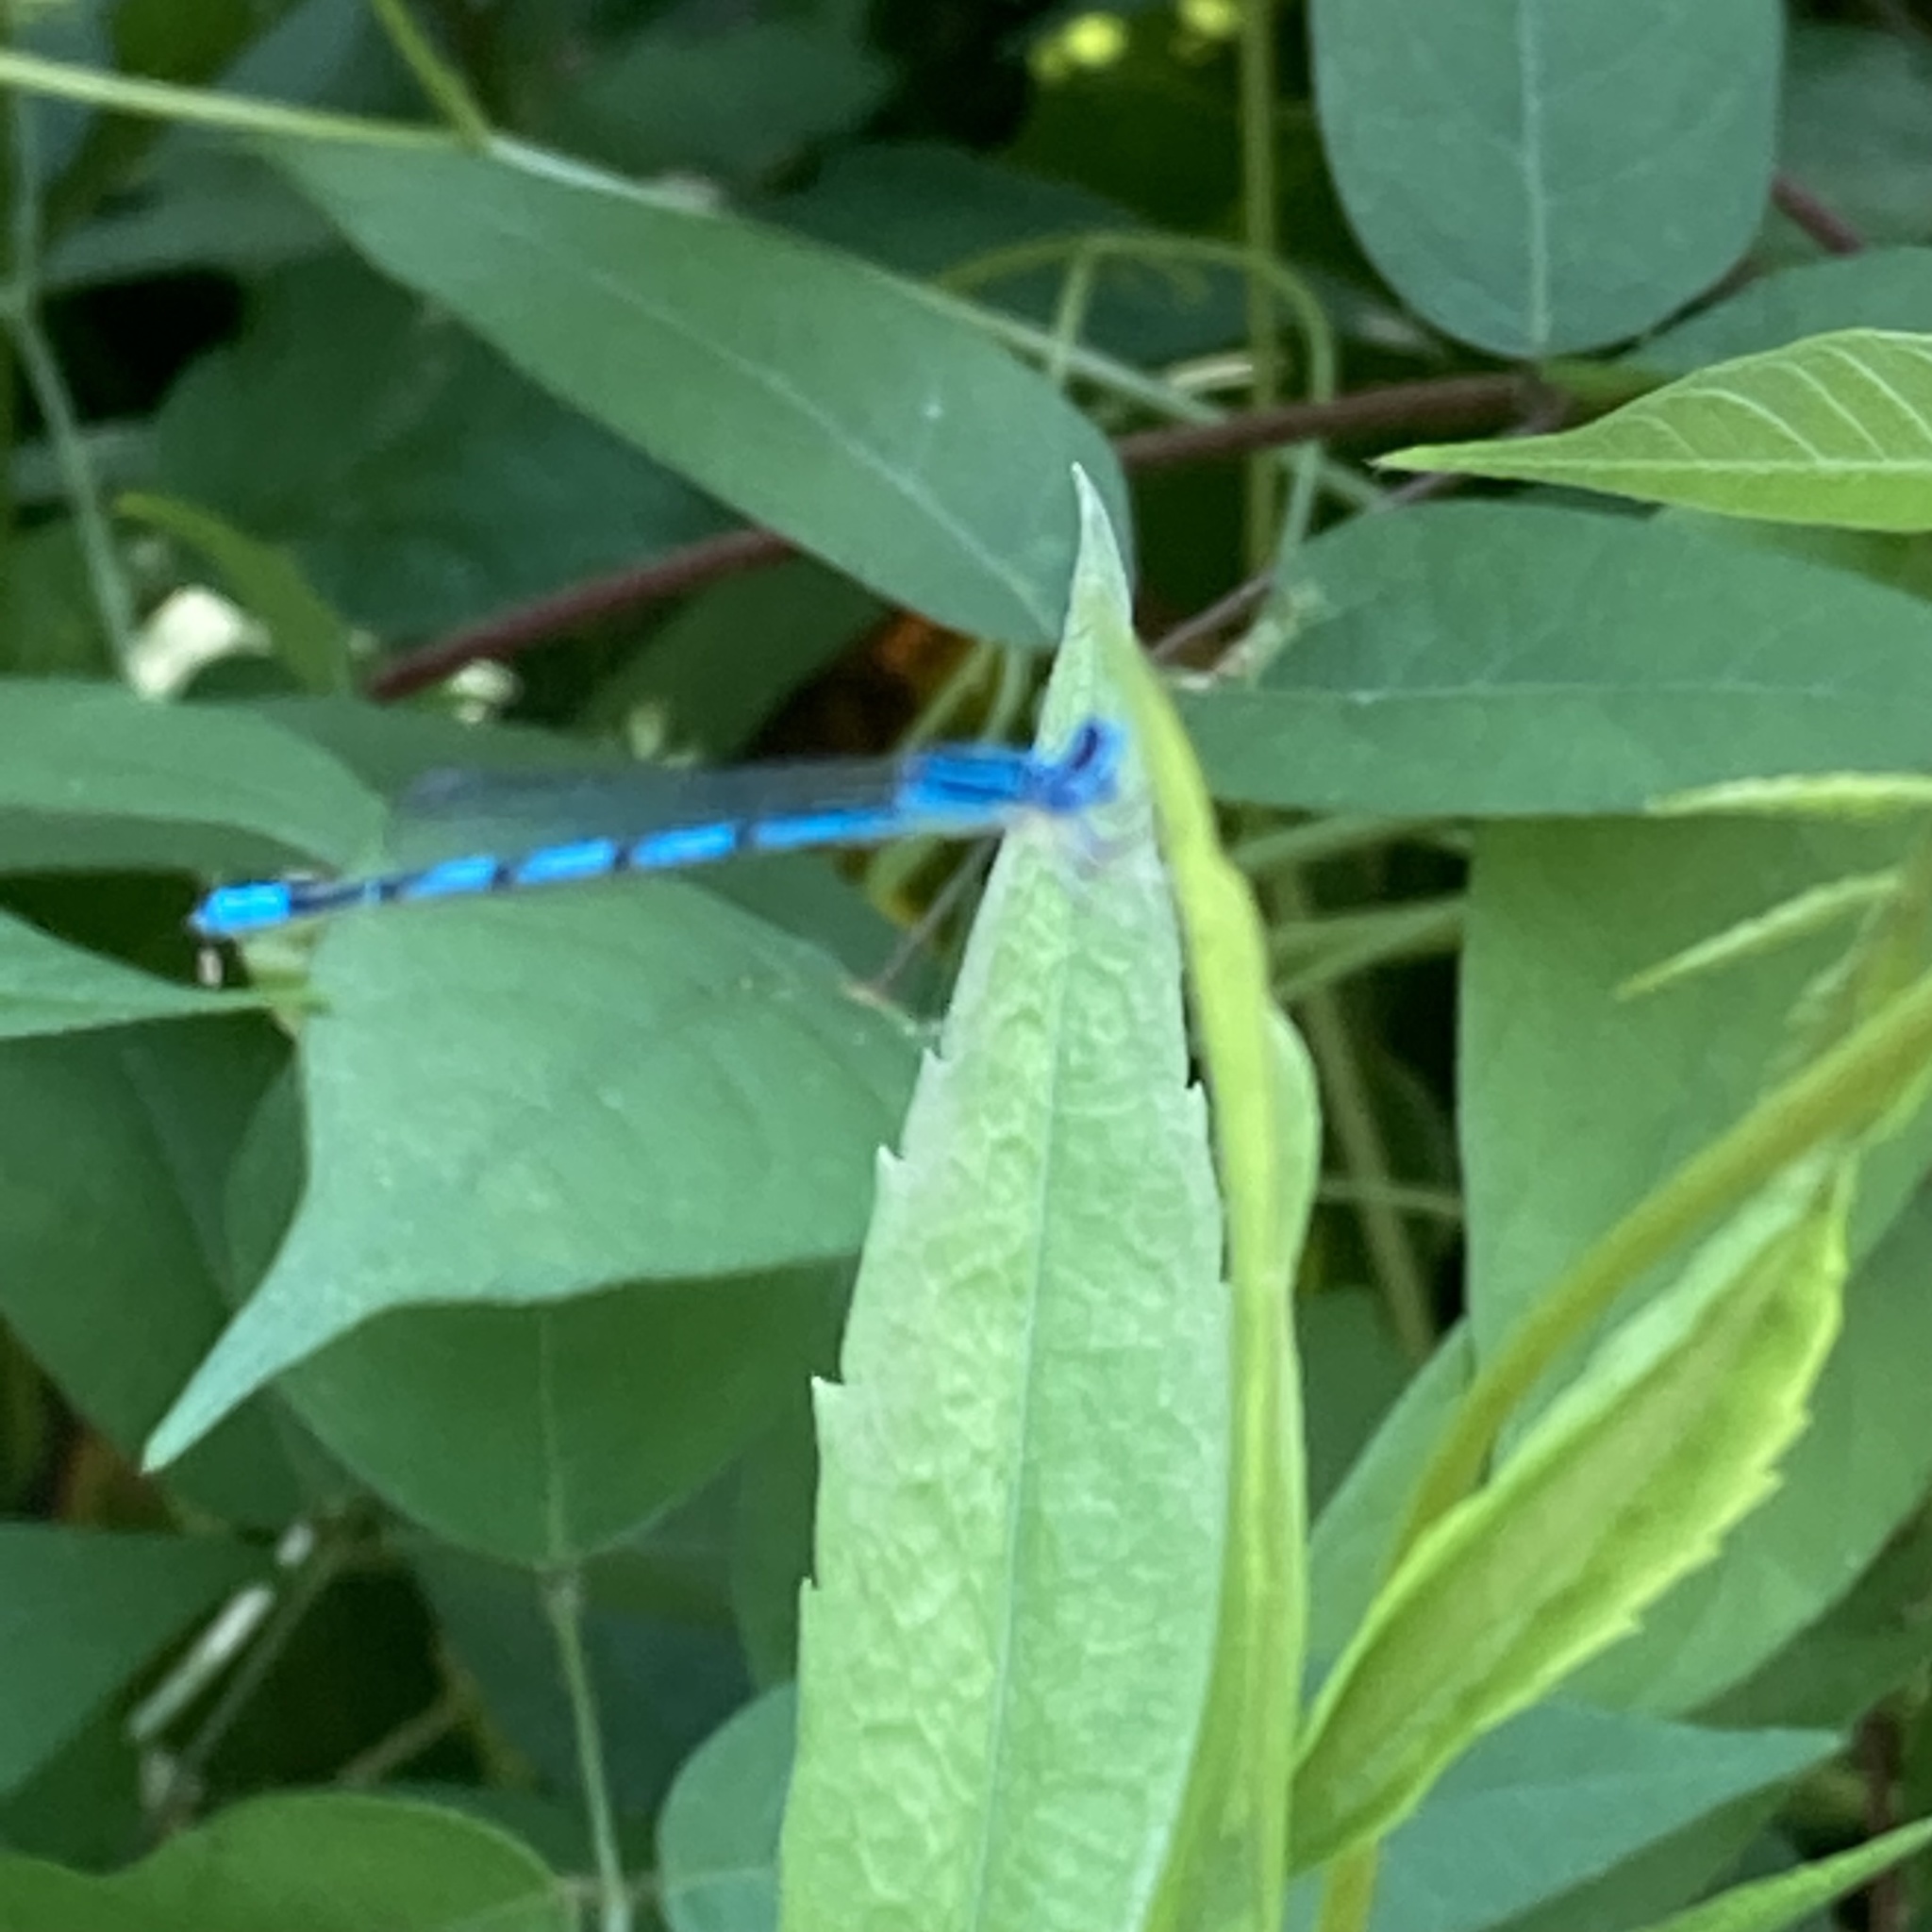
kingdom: Animalia
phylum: Arthropoda
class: Insecta
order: Odonata
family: Coenagrionidae
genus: Enallagma
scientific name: Enallagma basidens
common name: Double-striped bluet
